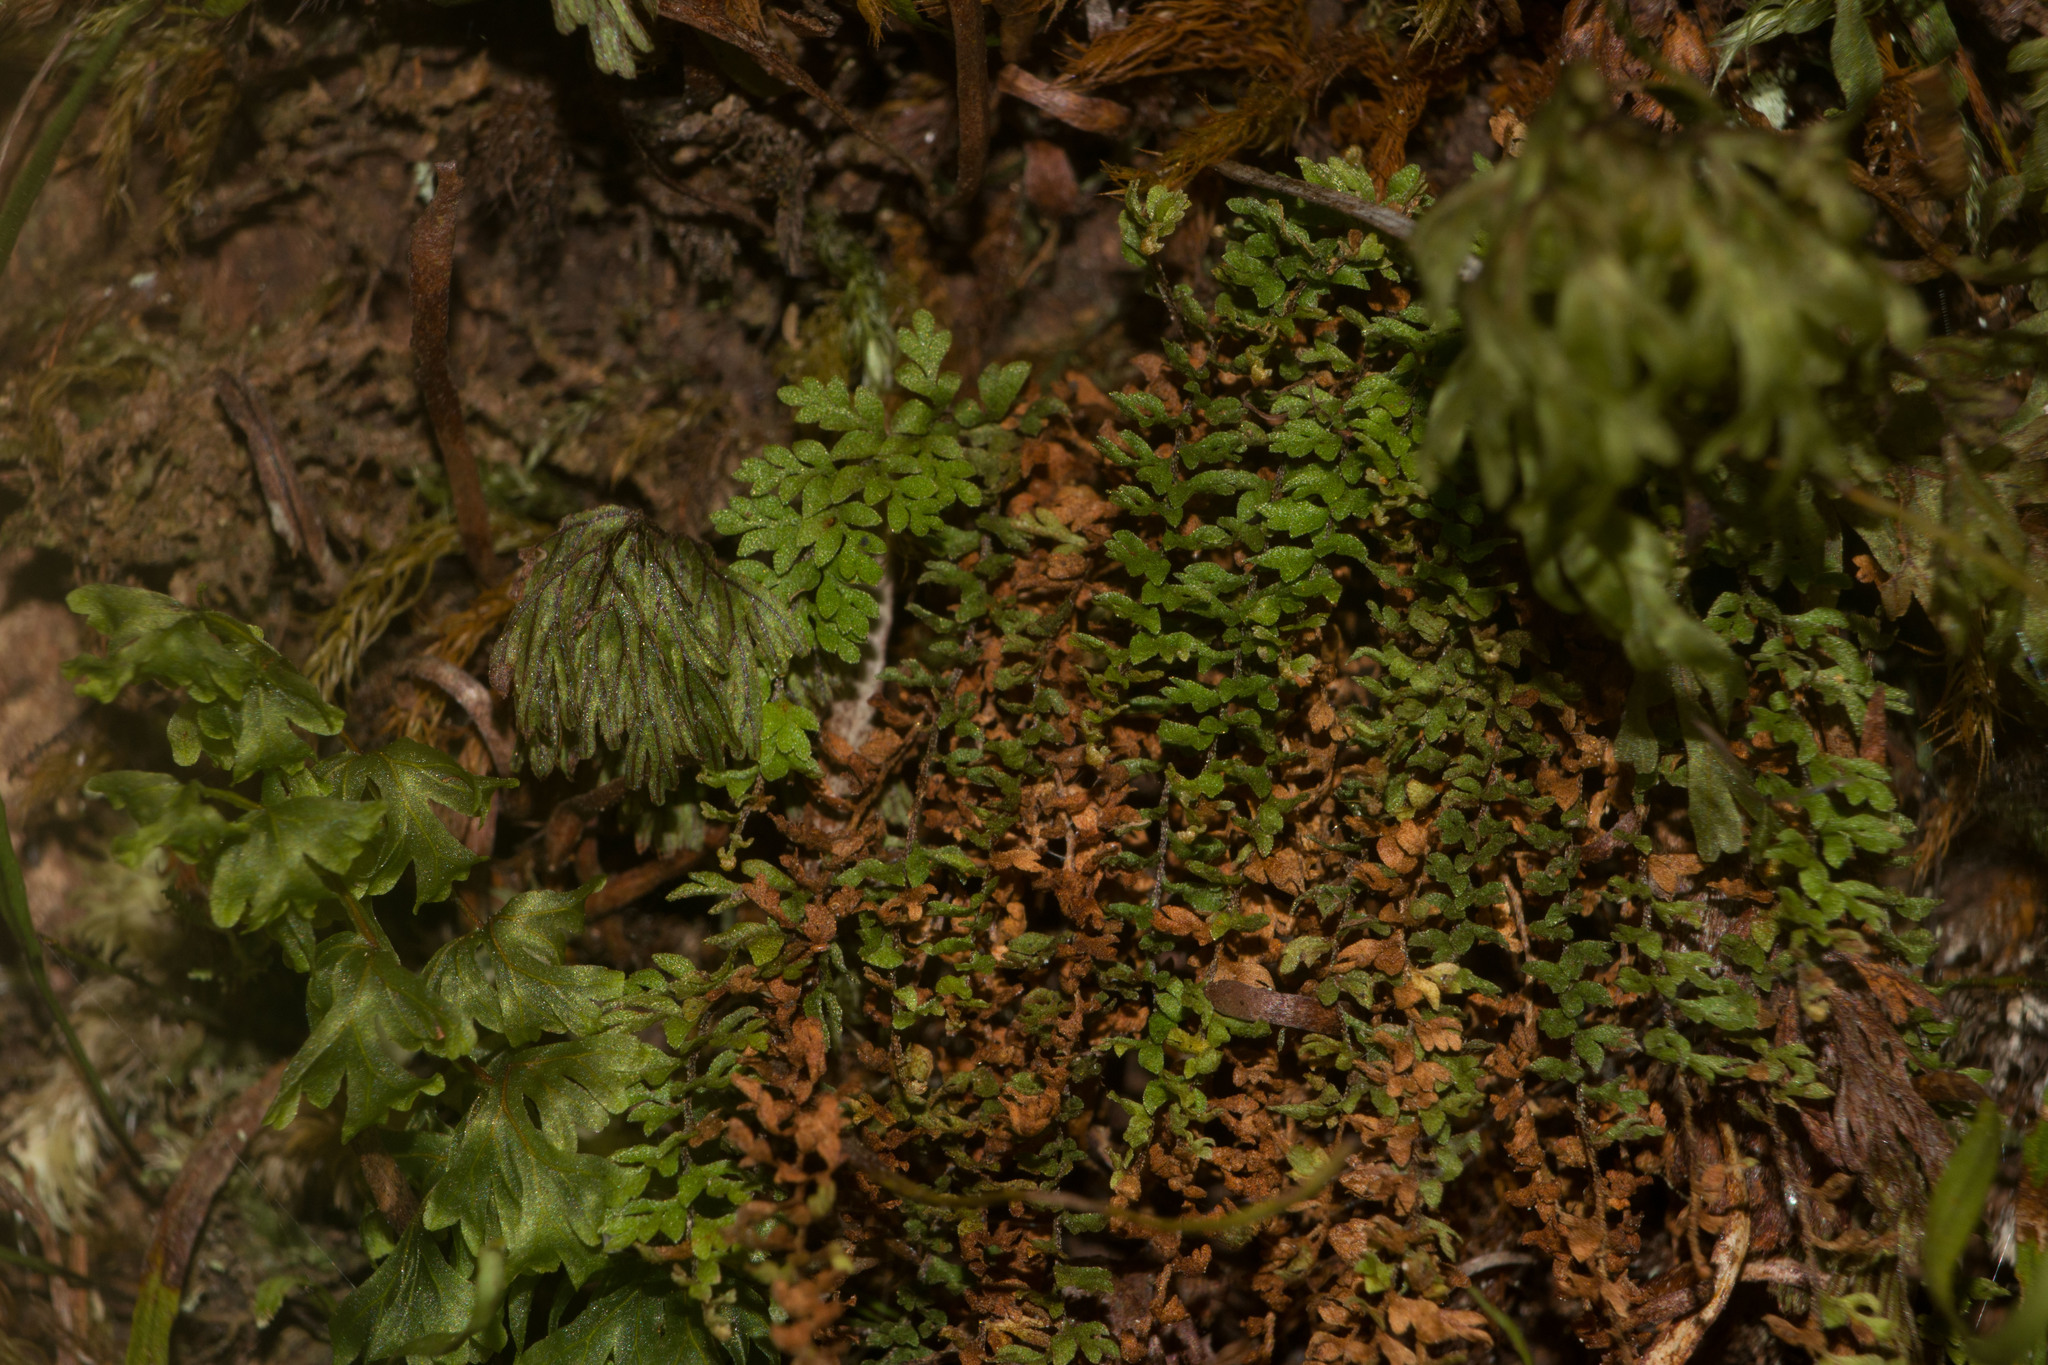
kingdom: Plantae
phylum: Tracheophyta
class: Polypodiopsida
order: Polypodiales
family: Polypodiaceae
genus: Adenophorus
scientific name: Adenophorus hymenophylloides
